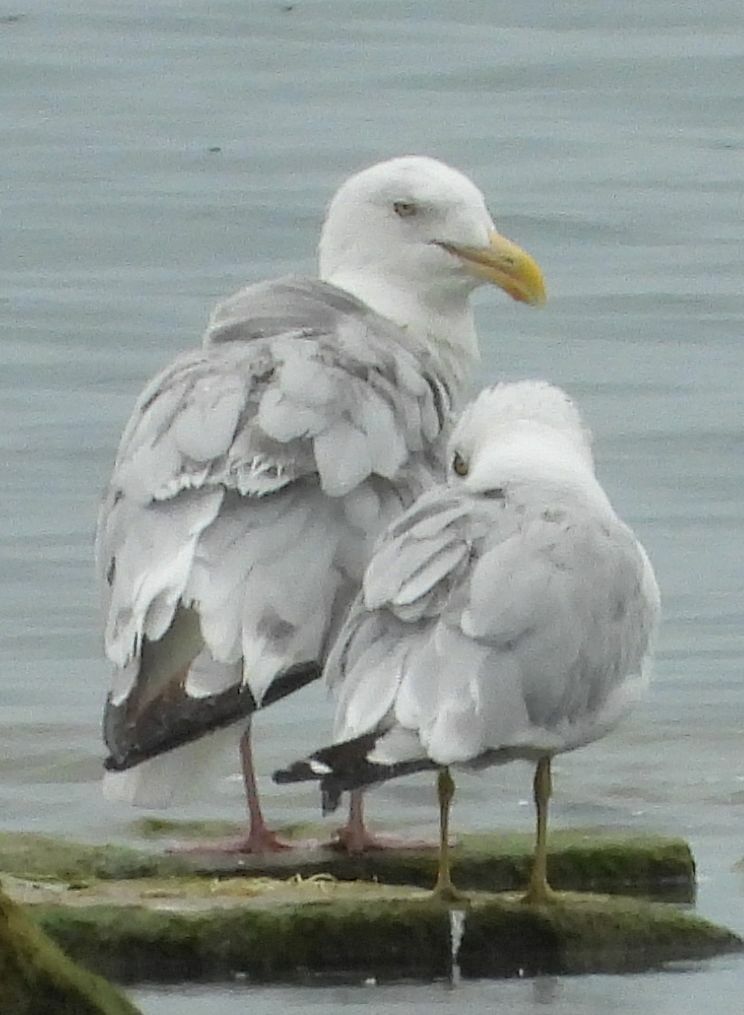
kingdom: Animalia
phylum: Chordata
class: Aves
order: Charadriiformes
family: Laridae
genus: Larus
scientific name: Larus argentatus
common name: Herring gull
